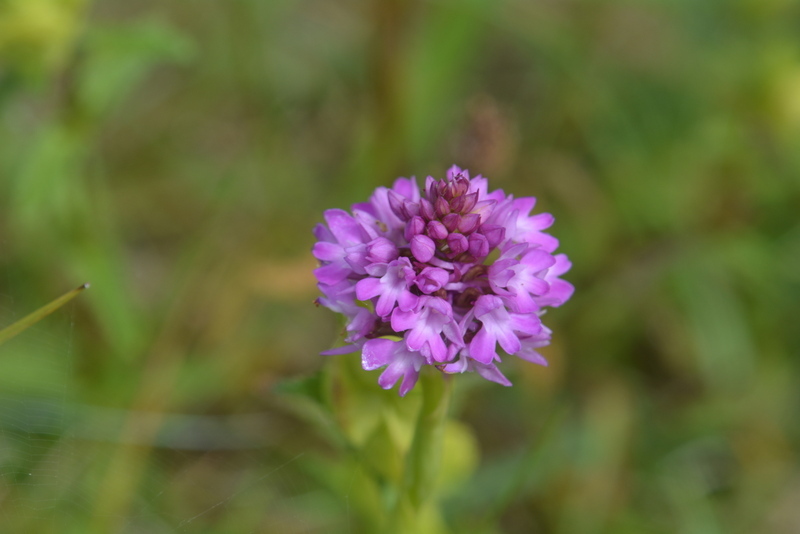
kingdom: Plantae
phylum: Tracheophyta
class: Liliopsida
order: Asparagales
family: Orchidaceae
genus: Anacamptis
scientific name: Anacamptis pyramidalis
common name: Pyramidal orchid
